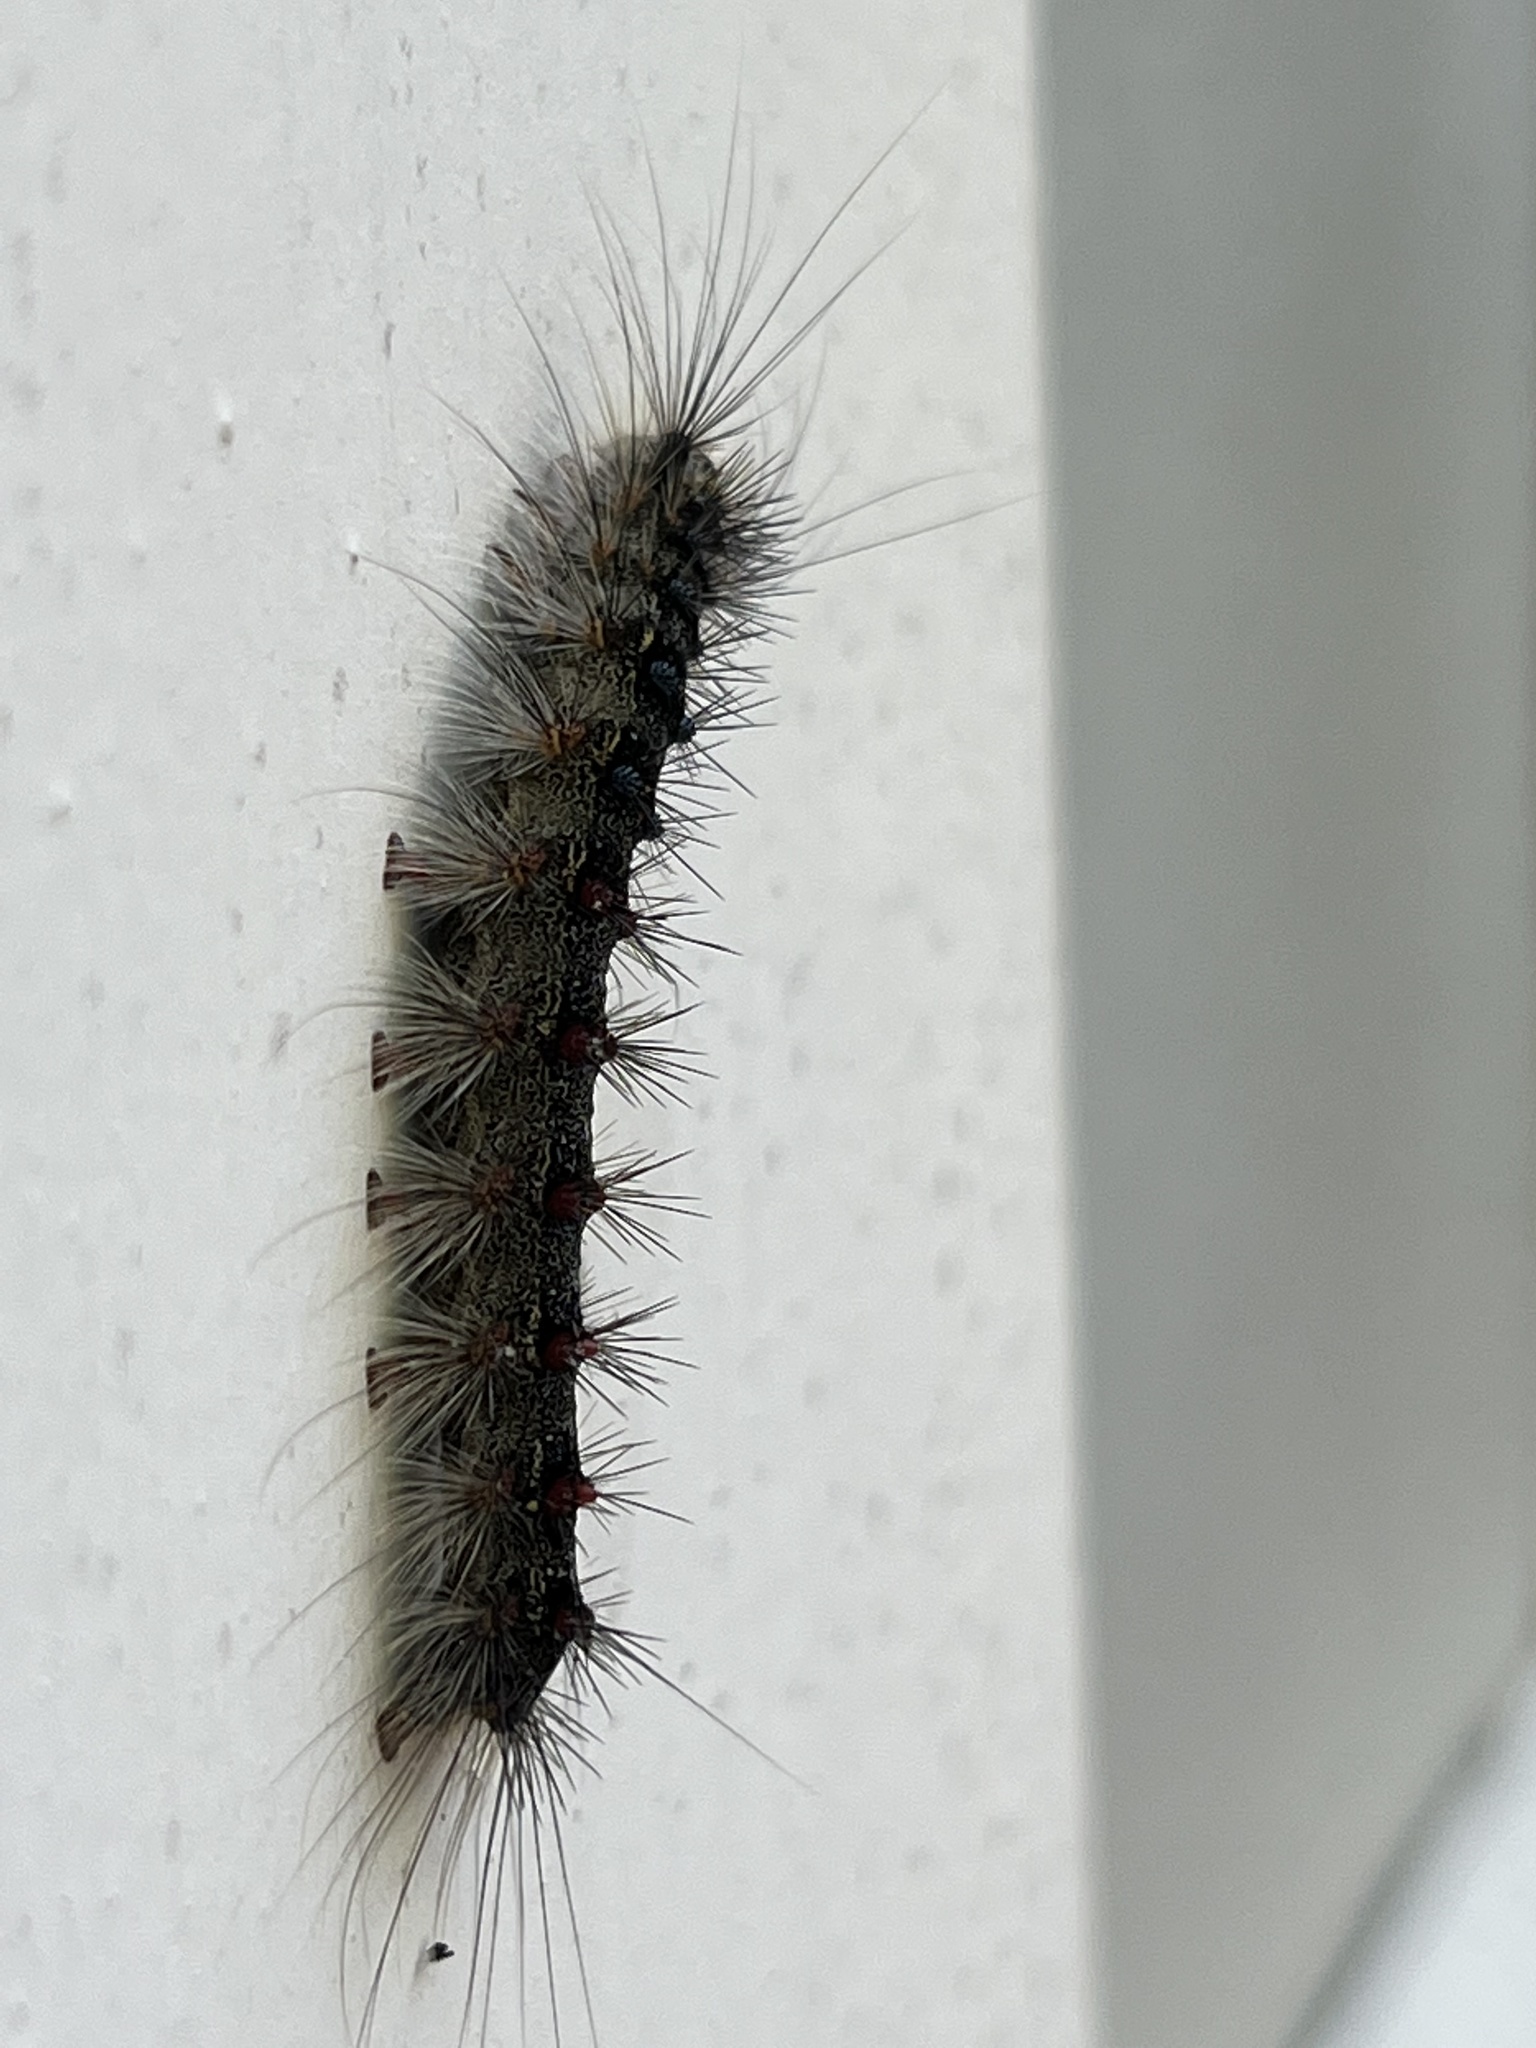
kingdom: Animalia
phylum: Arthropoda
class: Insecta
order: Lepidoptera
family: Erebidae
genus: Lymantria
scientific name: Lymantria dispar
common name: Gypsy moth
